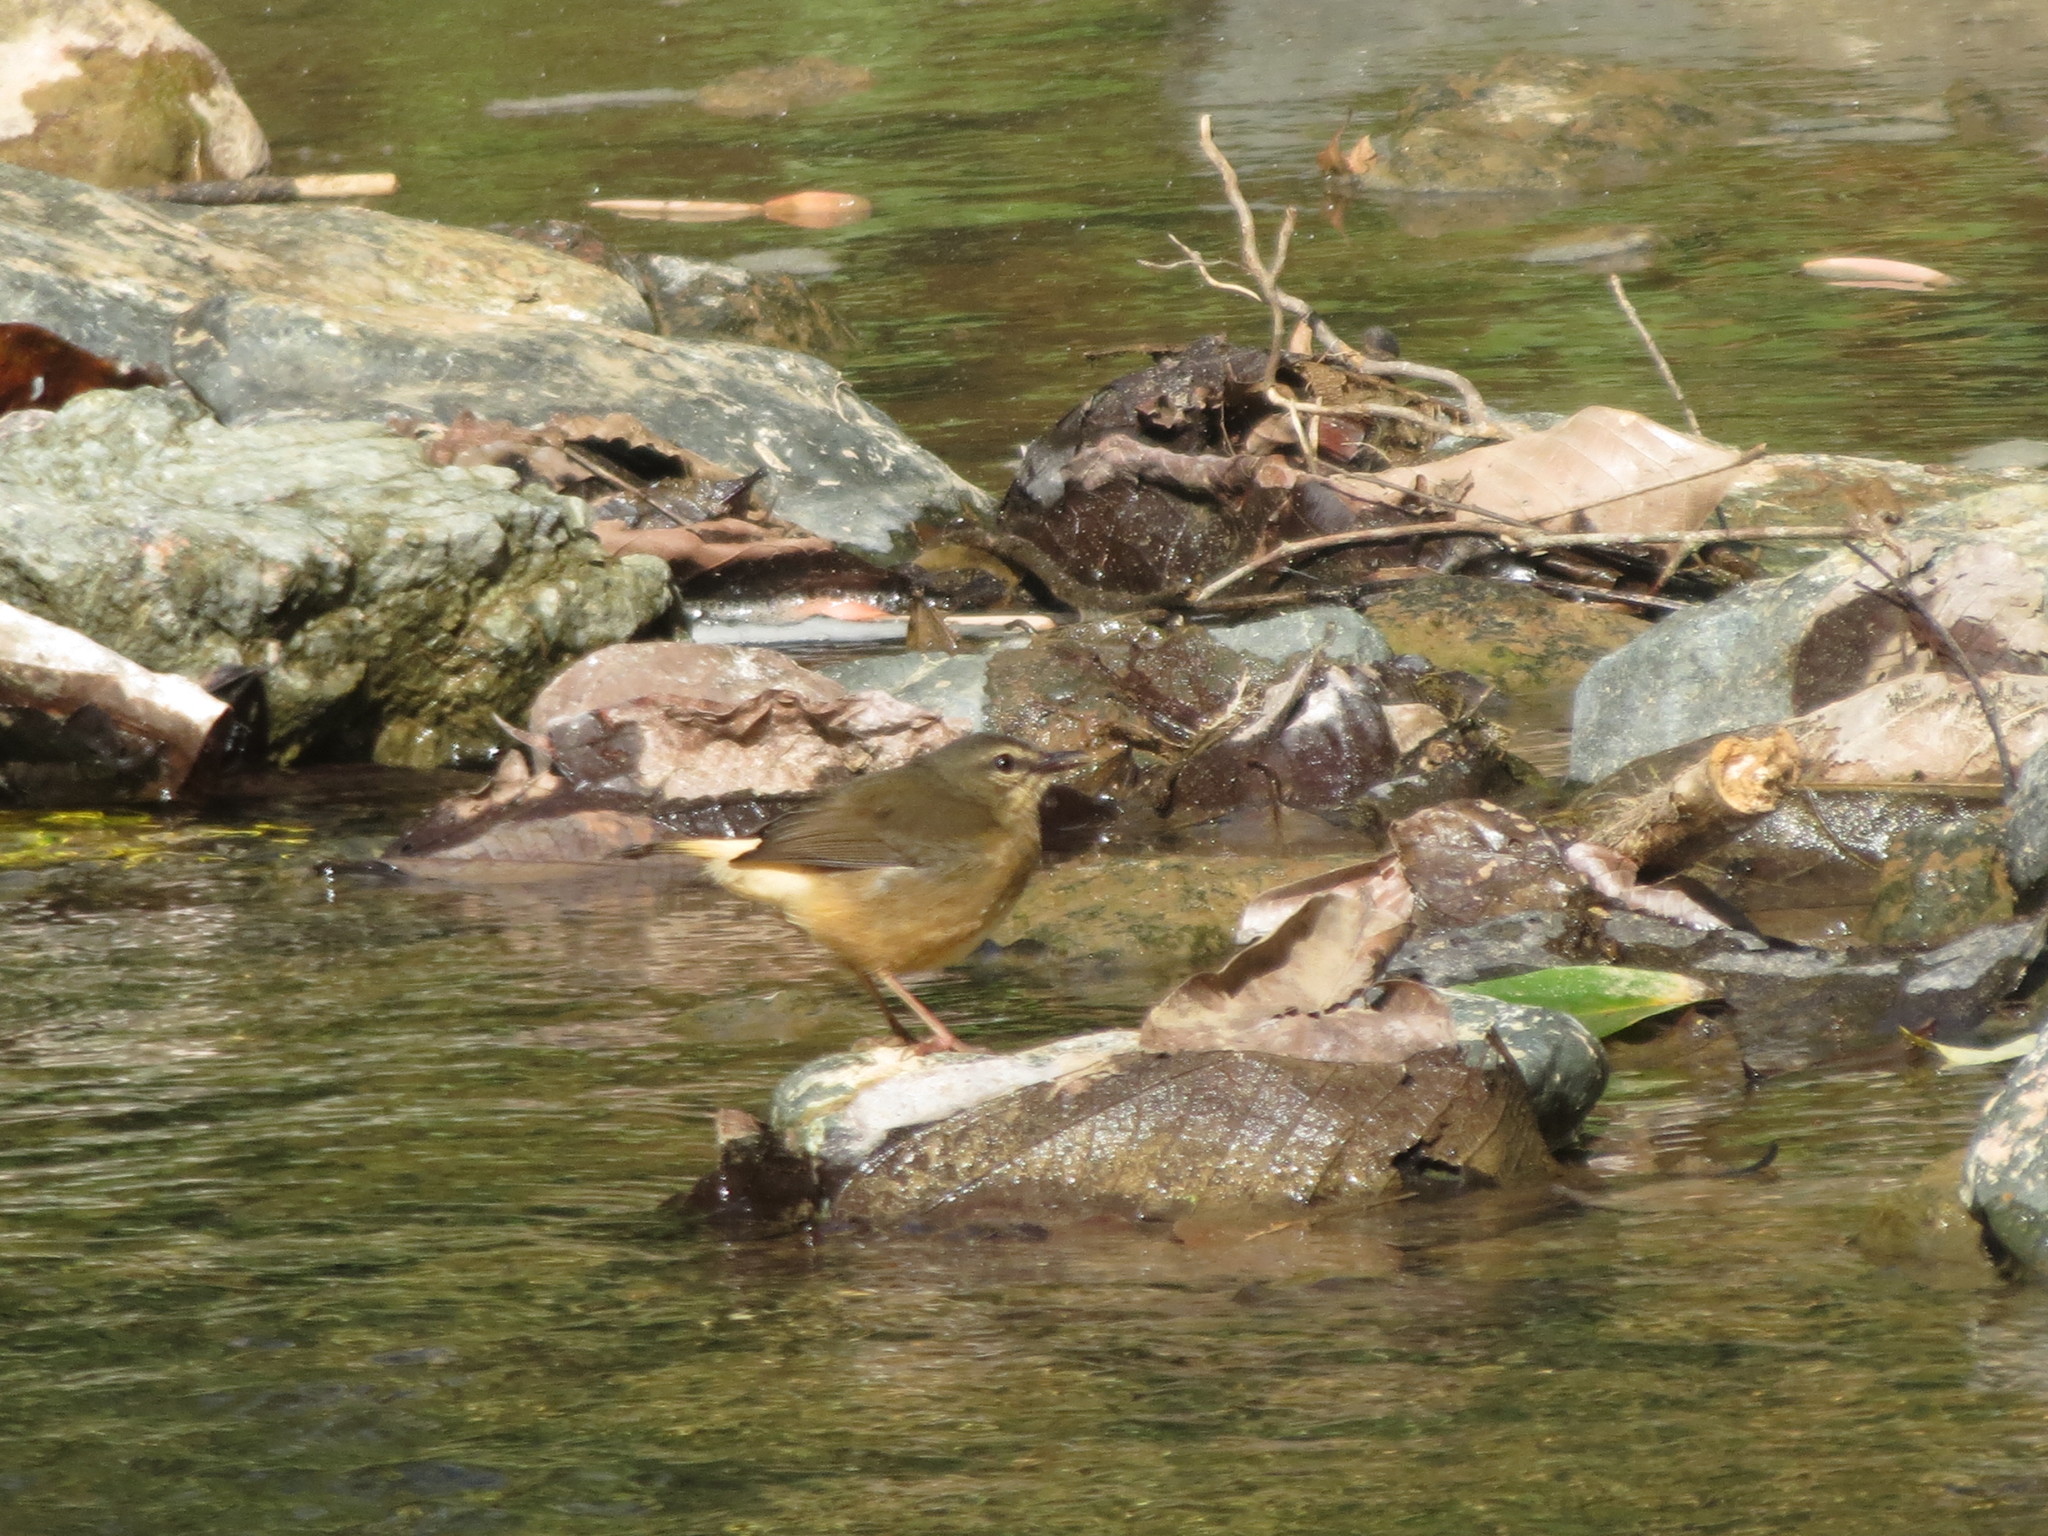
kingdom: Animalia
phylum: Chordata
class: Aves
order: Passeriformes
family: Parulidae
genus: Myiothlypis
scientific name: Myiothlypis fulvicauda
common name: Buff-rumped warbler
